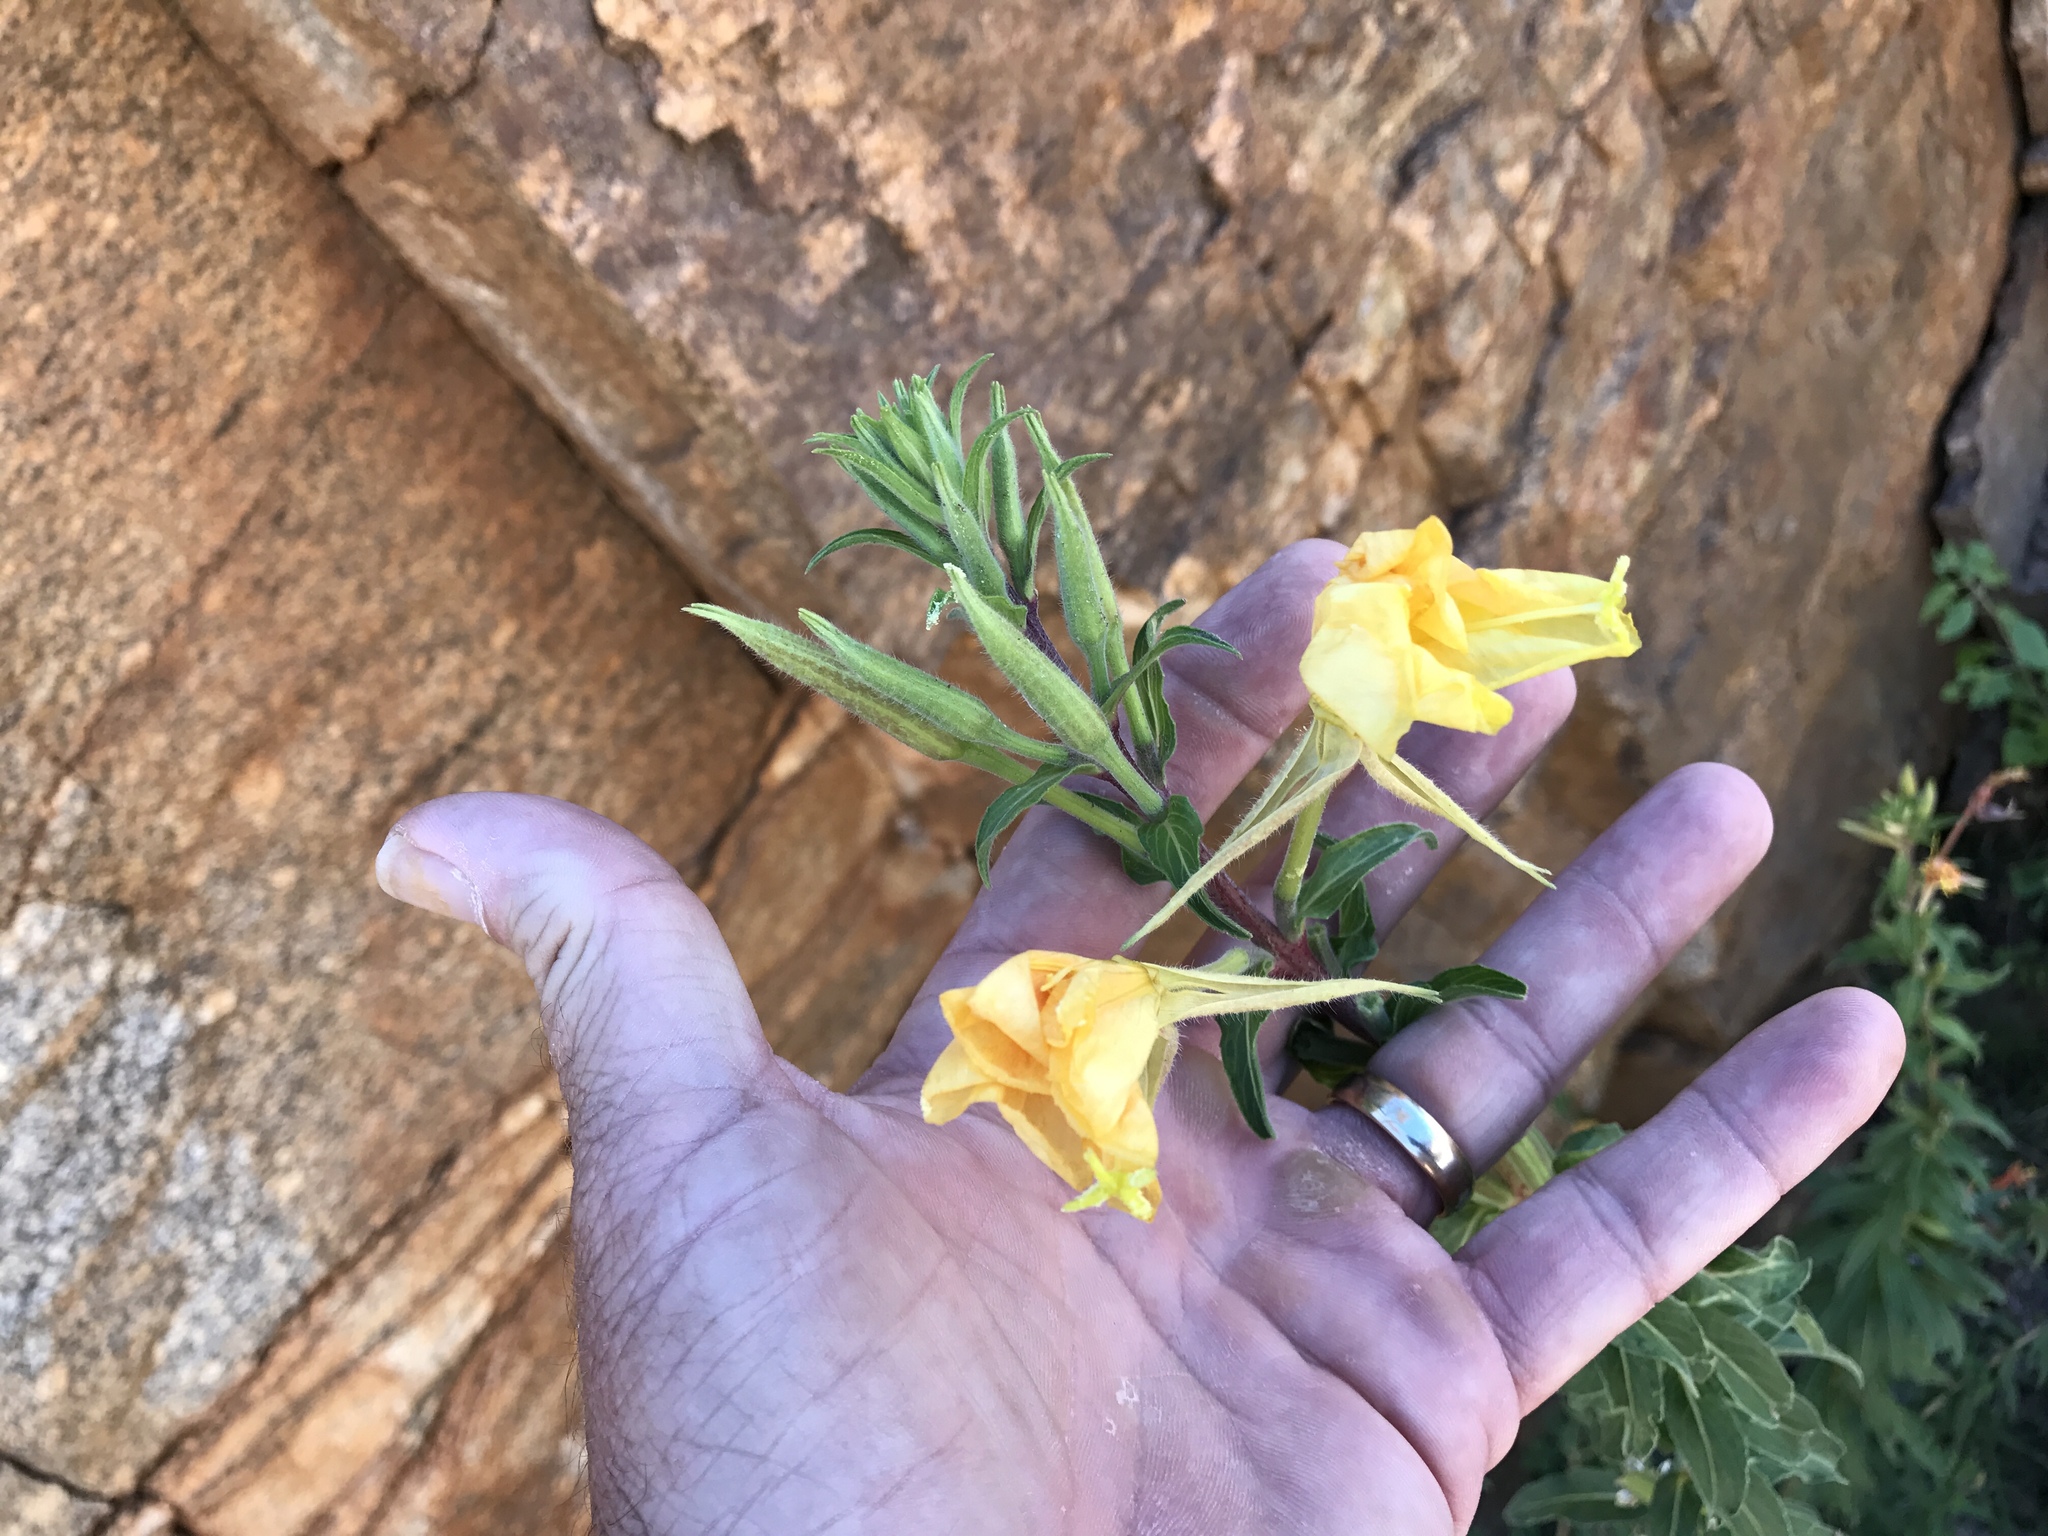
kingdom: Plantae
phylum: Tracheophyta
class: Magnoliopsida
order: Myrtales
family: Onagraceae
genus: Oenothera
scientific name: Oenothera elata
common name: Hooker's evening-primrose
